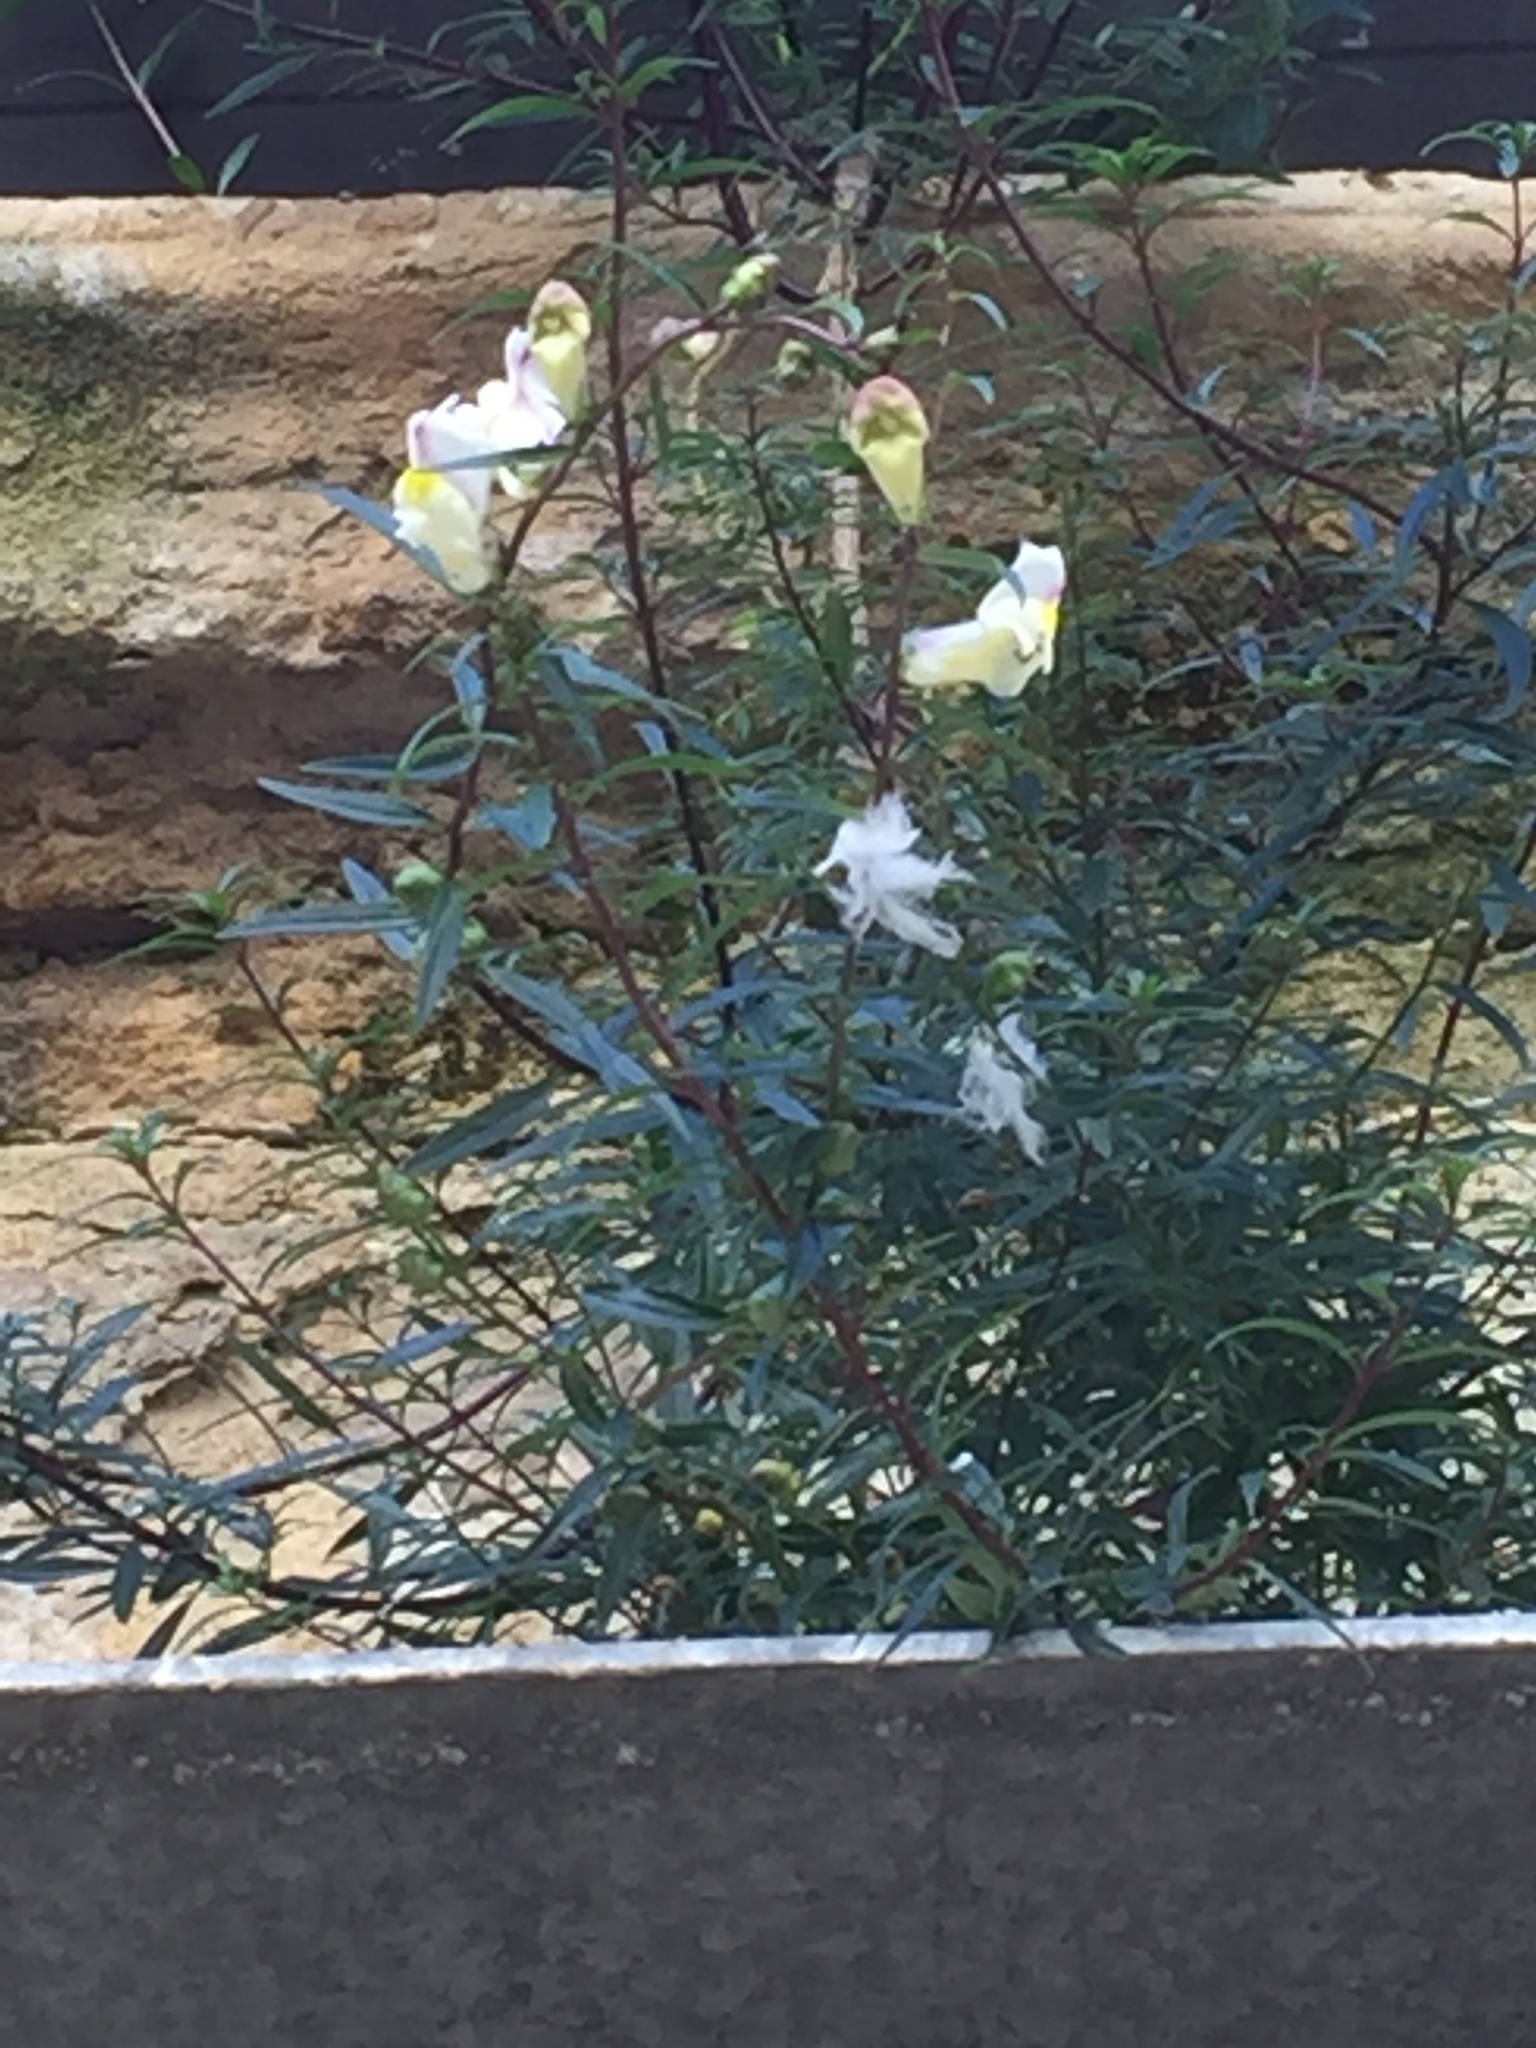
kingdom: Plantae
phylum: Tracheophyta
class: Magnoliopsida
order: Lamiales
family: Plantaginaceae
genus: Antirrhinum
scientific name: Antirrhinum majus
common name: Snapdragon
